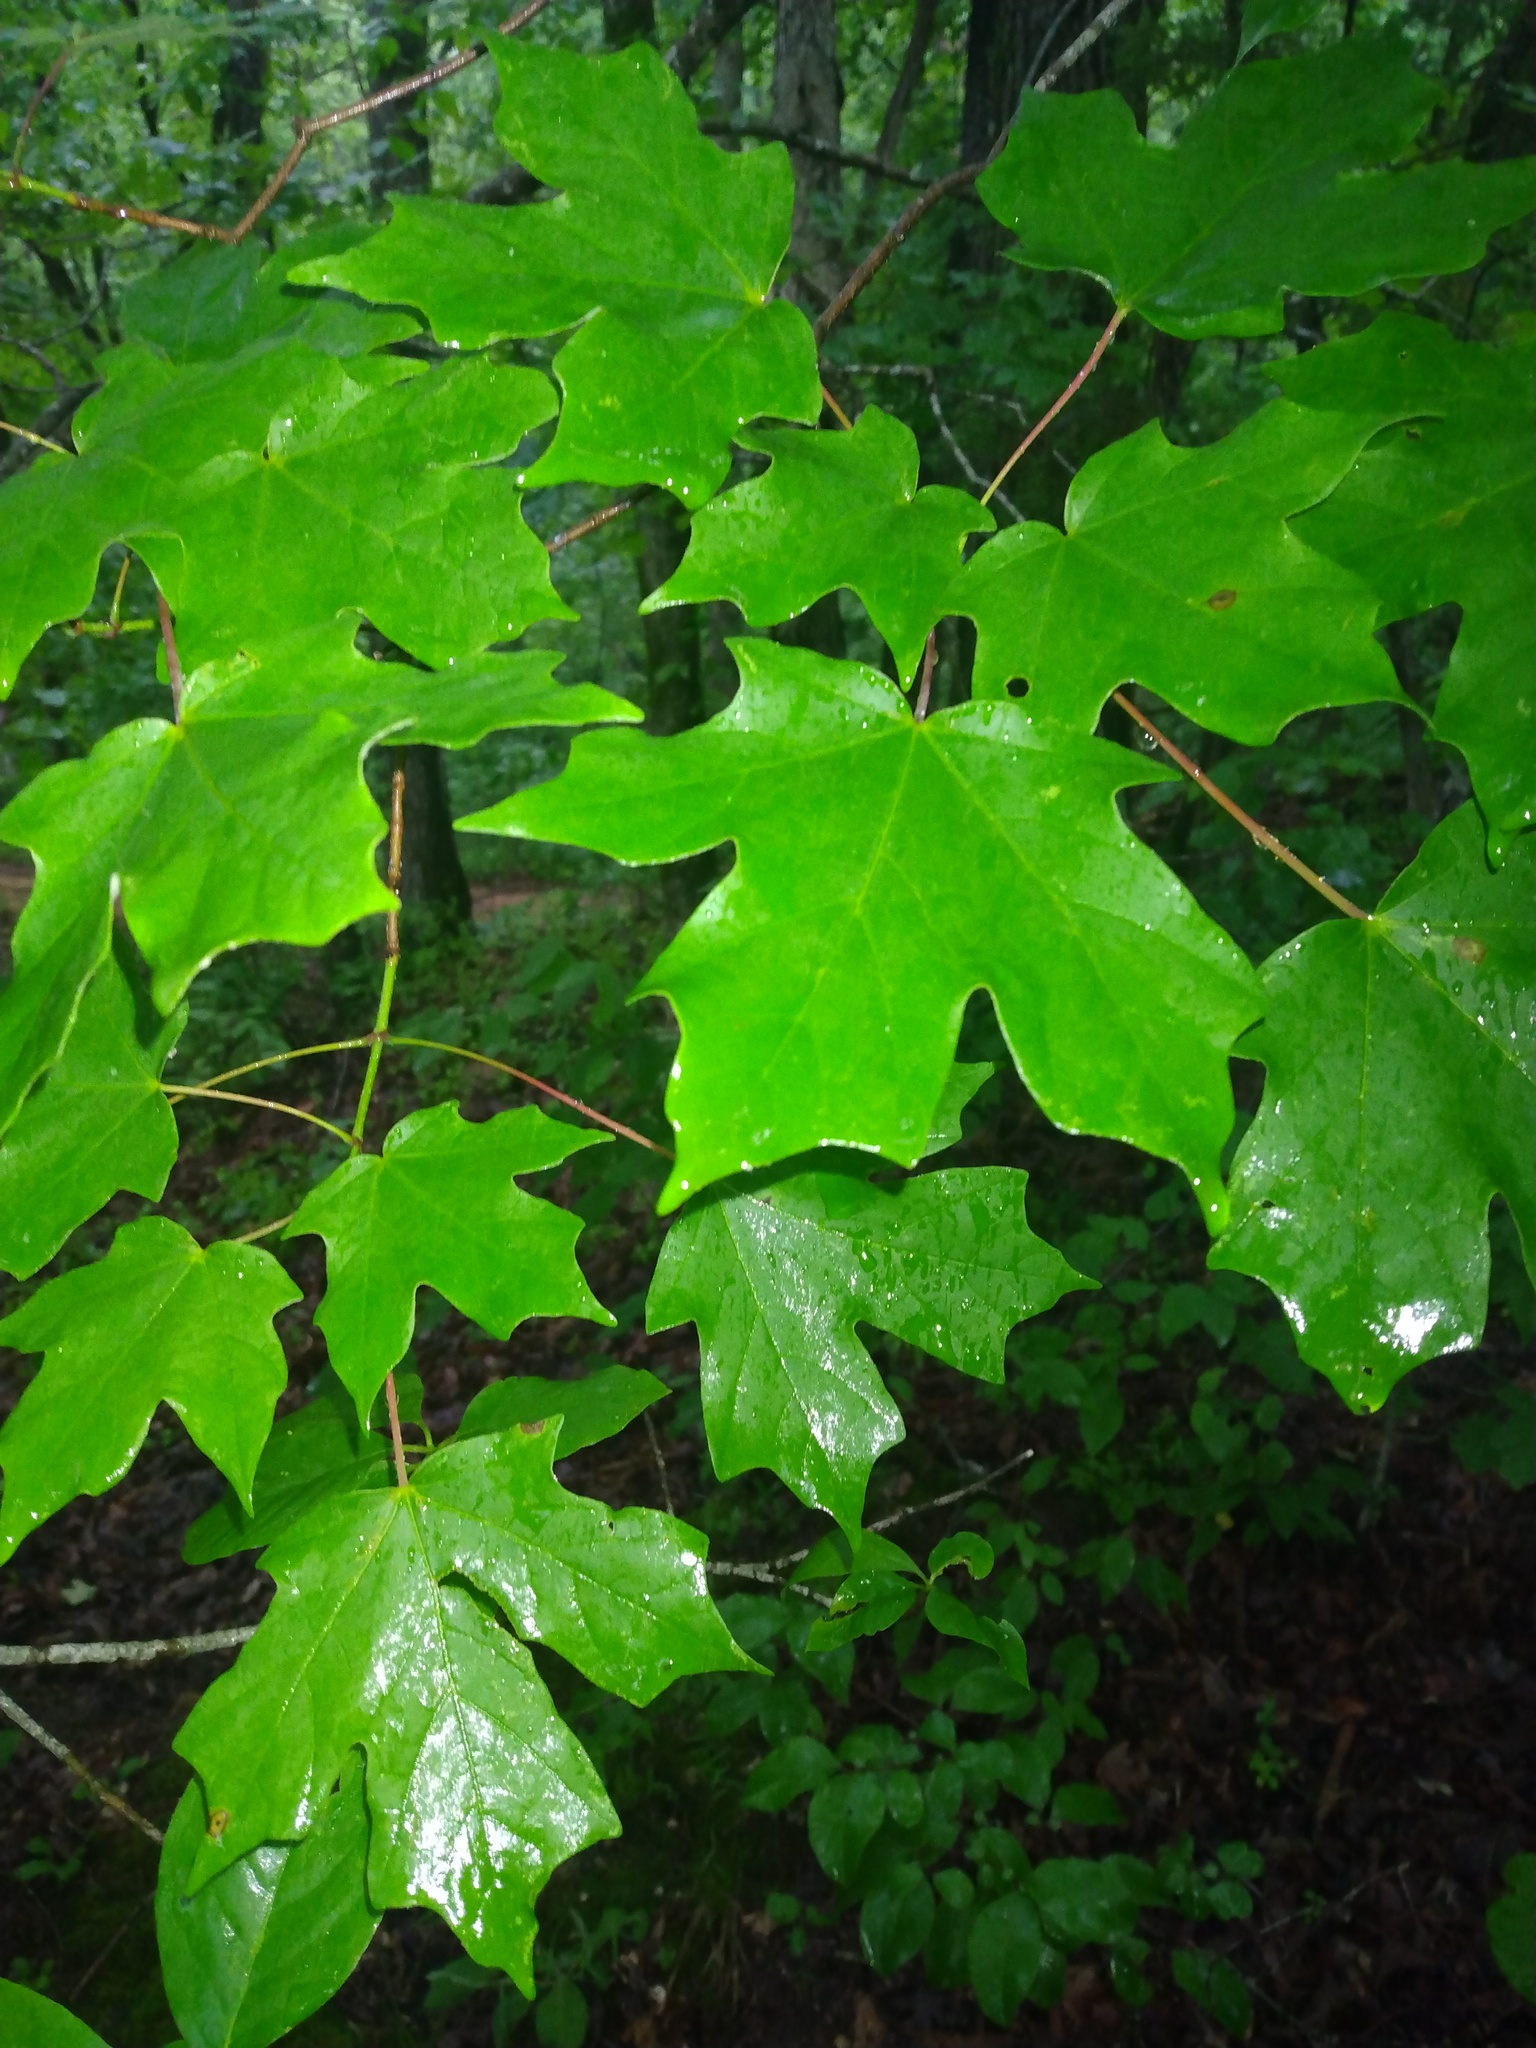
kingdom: Plantae
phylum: Tracheophyta
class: Magnoliopsida
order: Sapindales
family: Sapindaceae
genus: Acer
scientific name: Acer floridanum
